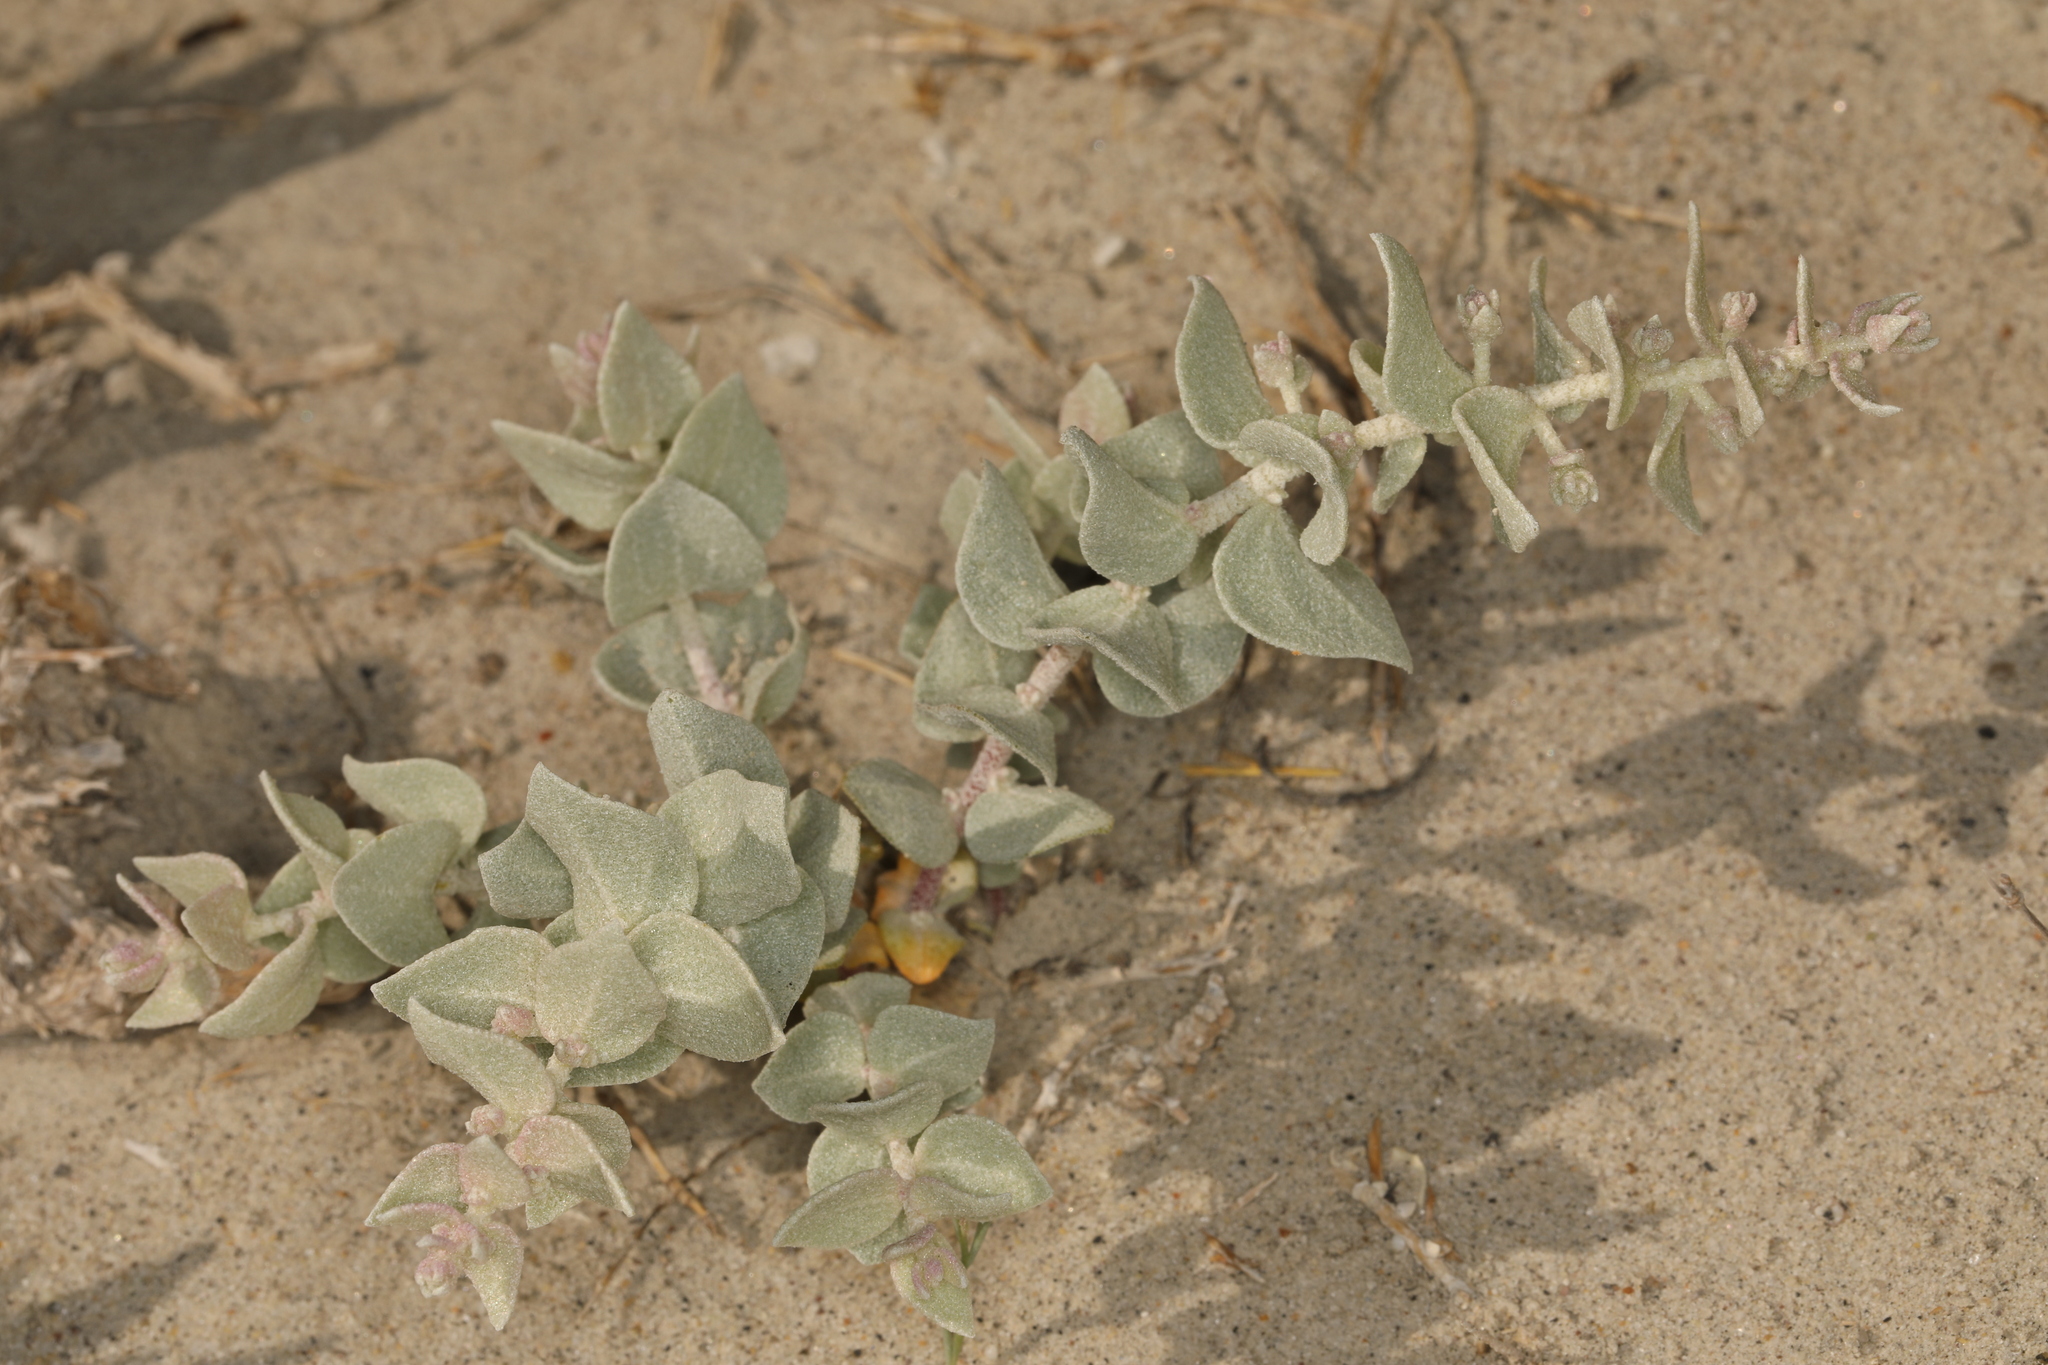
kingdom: Plantae
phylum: Tracheophyta
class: Magnoliopsida
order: Caryophyllales
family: Amaranthaceae
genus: Atriplex
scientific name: Atriplex parryi
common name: Parry's saltbush
